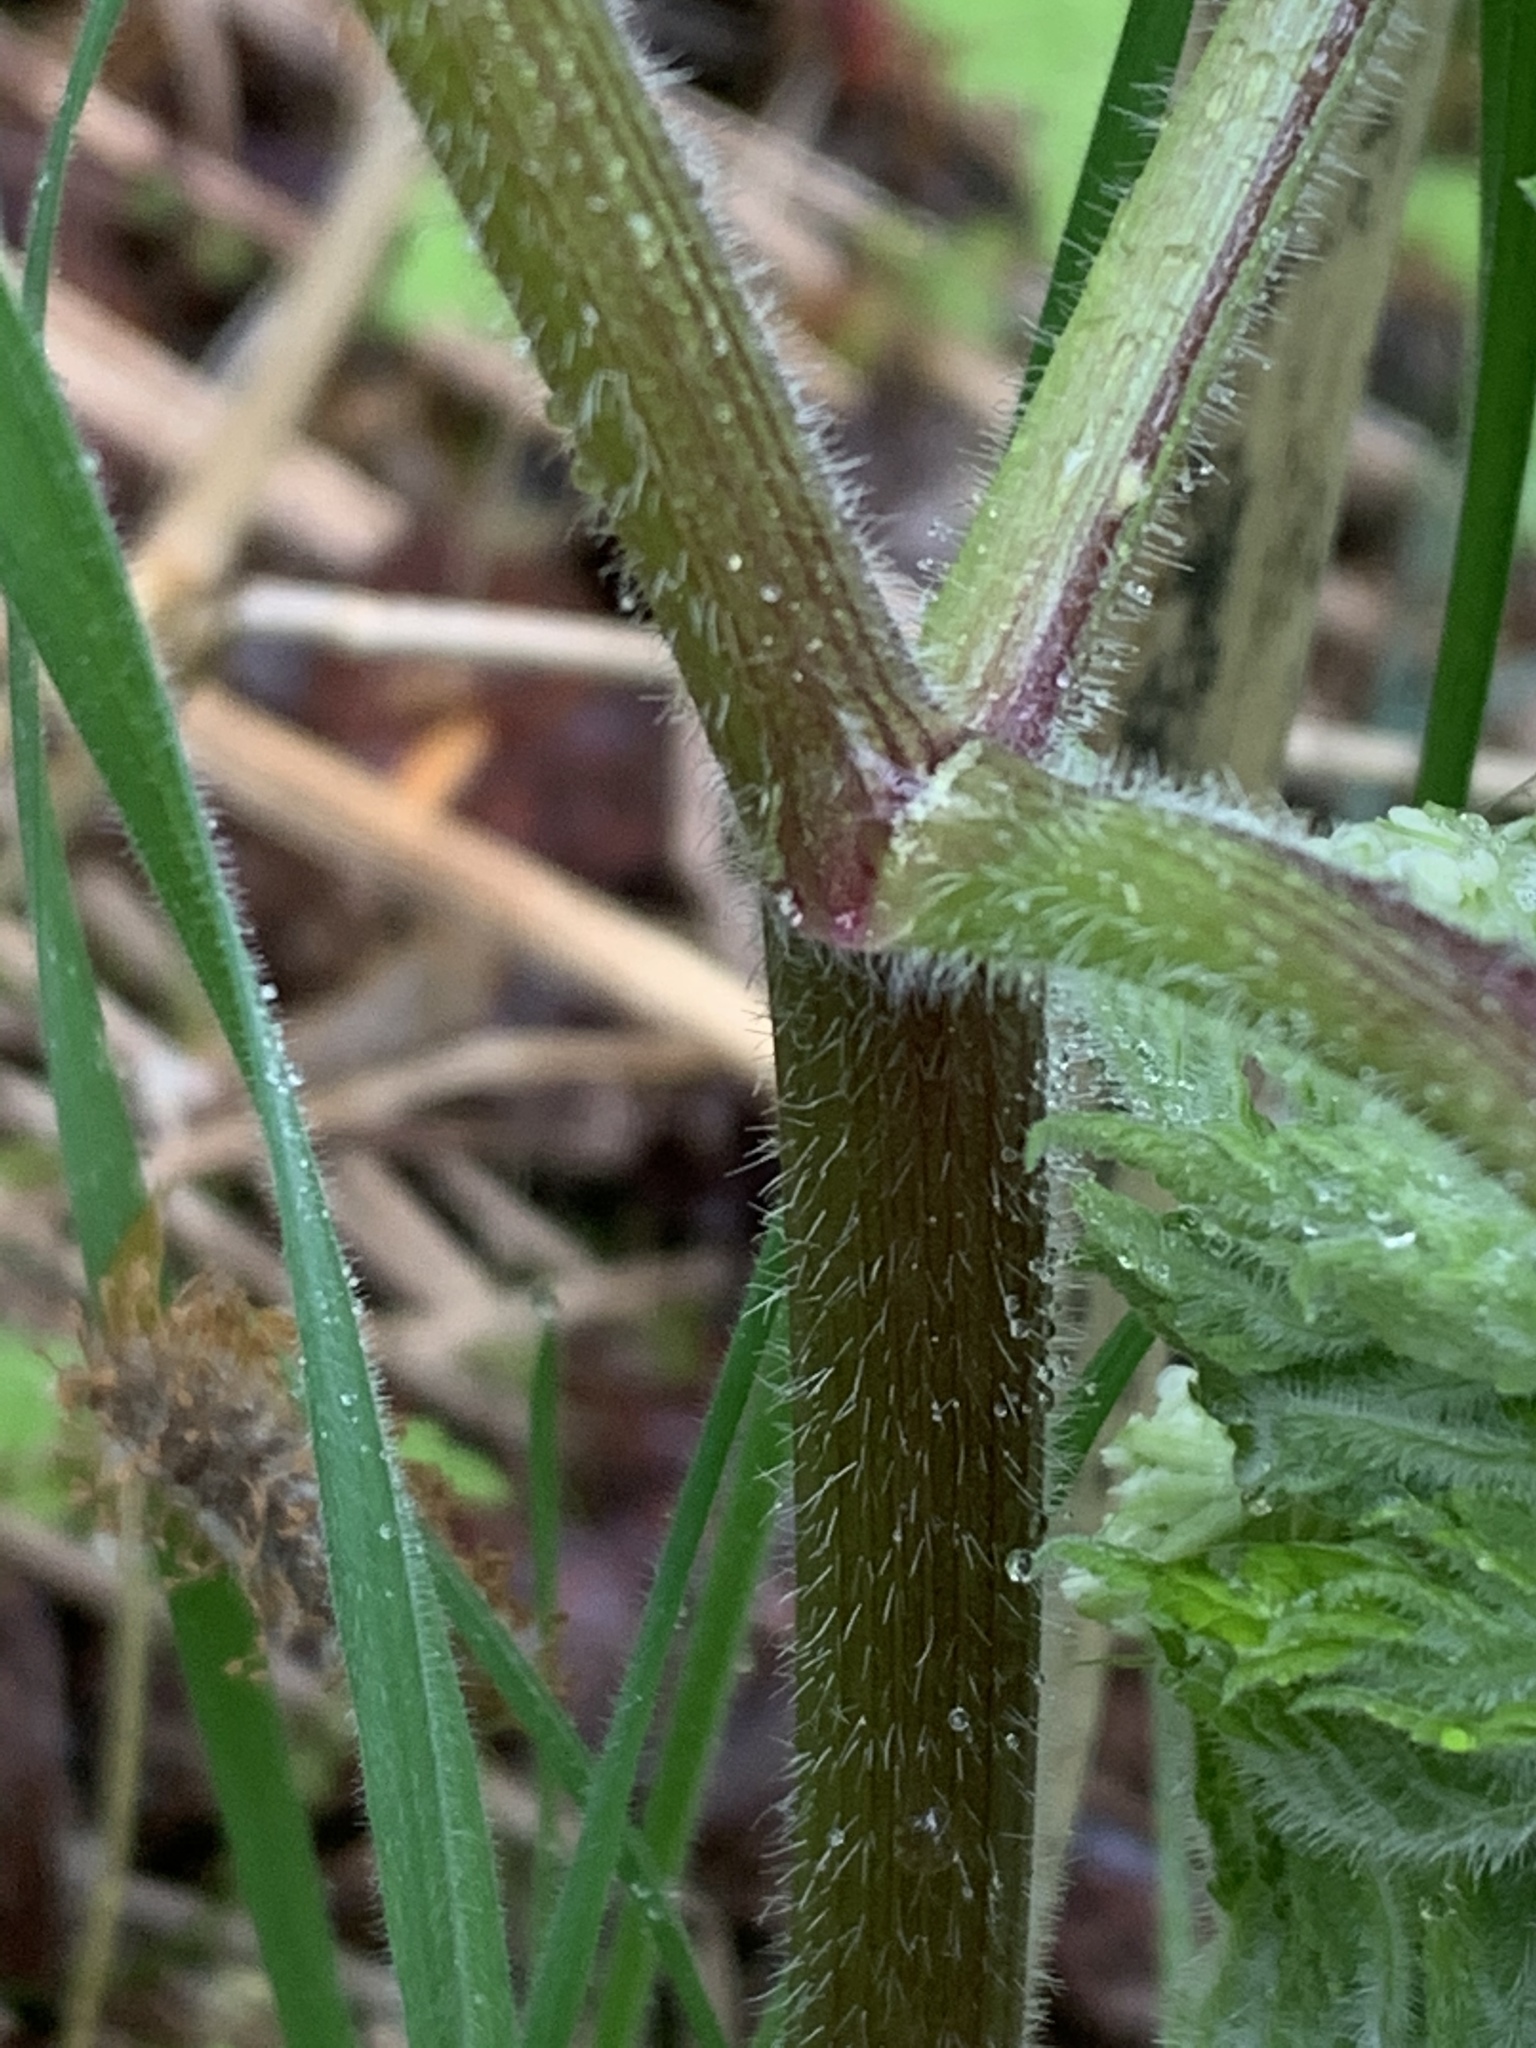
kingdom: Plantae
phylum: Tracheophyta
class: Magnoliopsida
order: Apiales
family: Apiaceae
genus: Myrrhis
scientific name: Myrrhis odorata
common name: Sweet cicely
